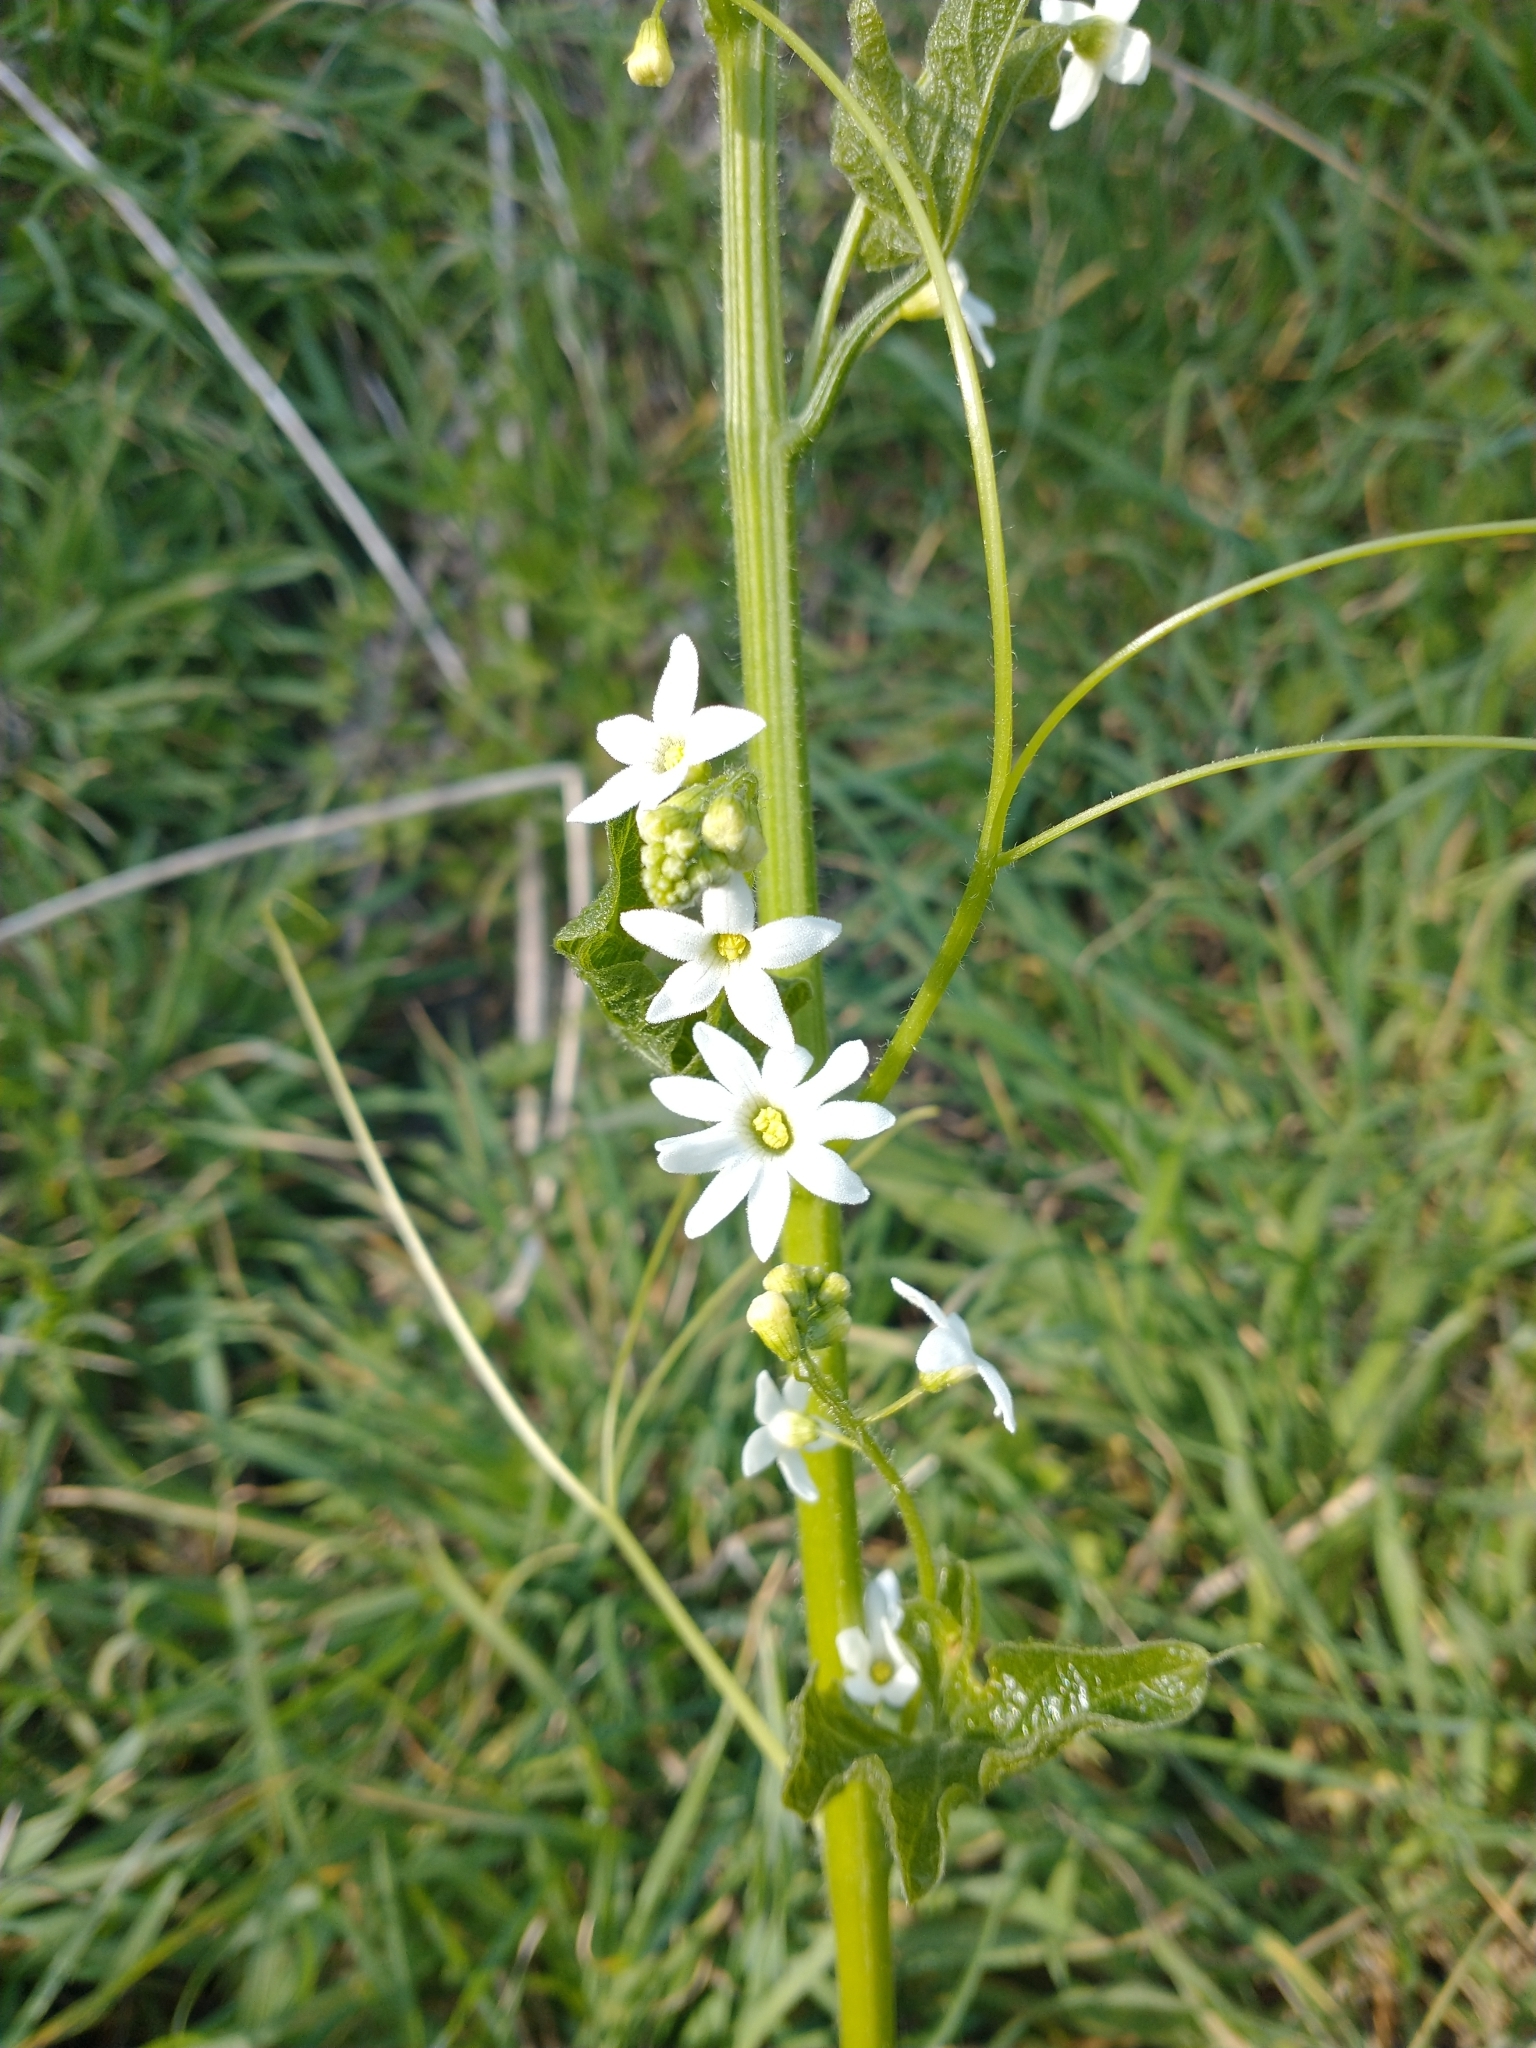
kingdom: Plantae
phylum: Tracheophyta
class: Magnoliopsida
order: Cucurbitales
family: Cucurbitaceae
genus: Marah
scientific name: Marah oregana
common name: Coastal manroot
